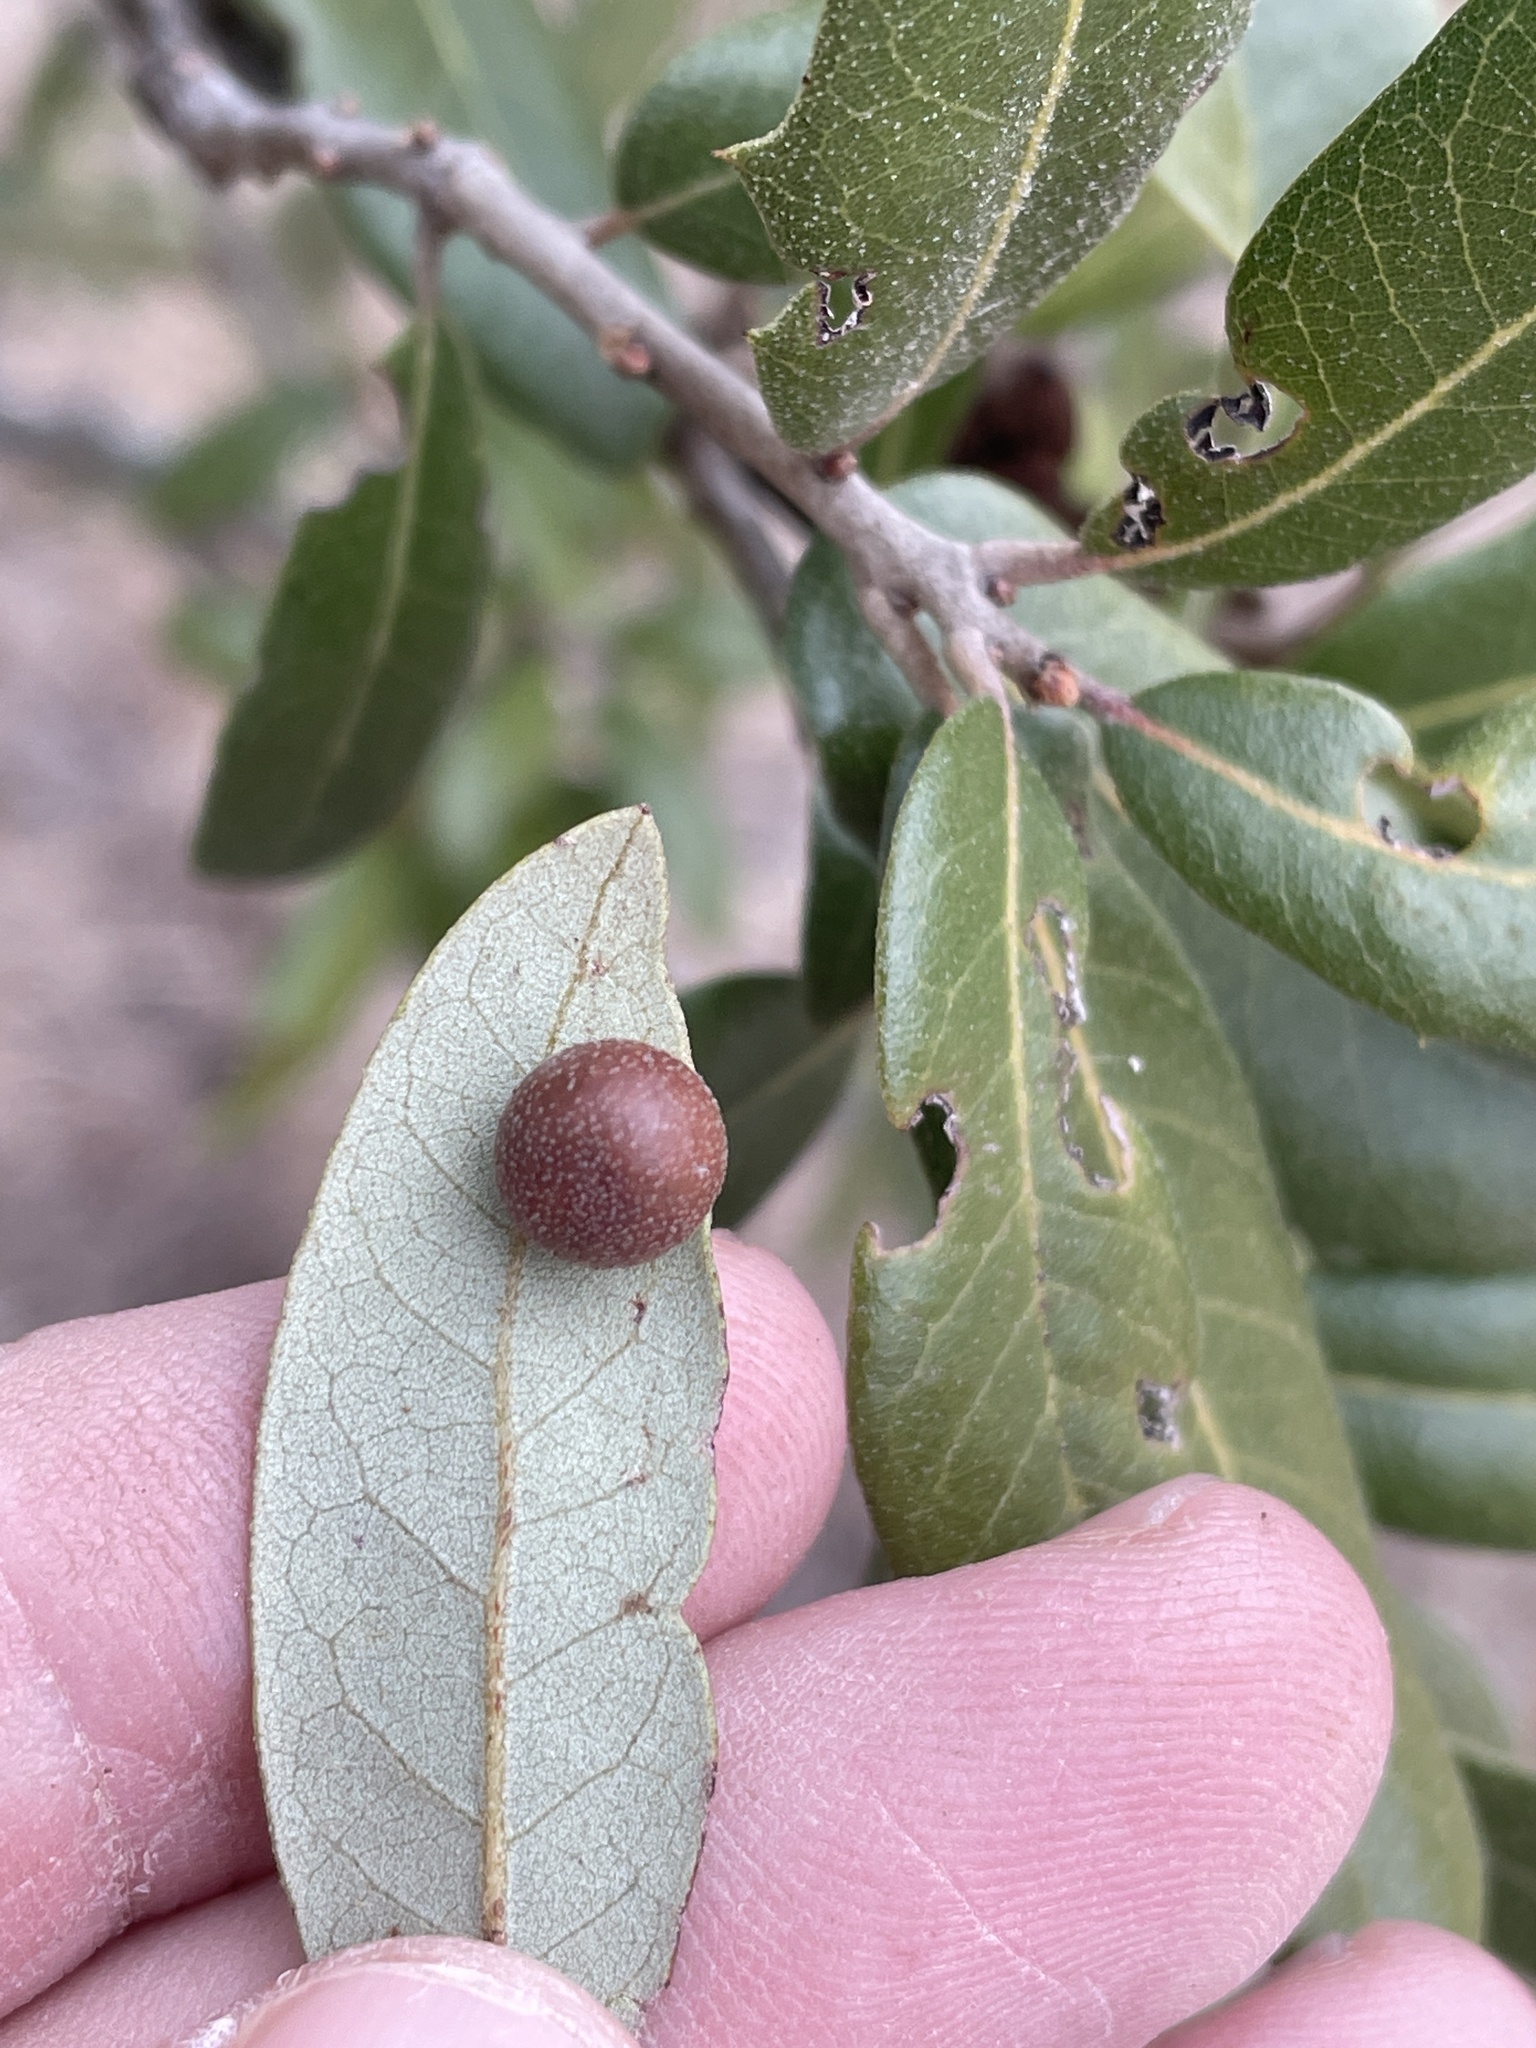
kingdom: Animalia
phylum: Arthropoda
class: Insecta
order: Hymenoptera
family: Cynipidae
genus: Belonocnema
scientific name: Belonocnema kinseyi
